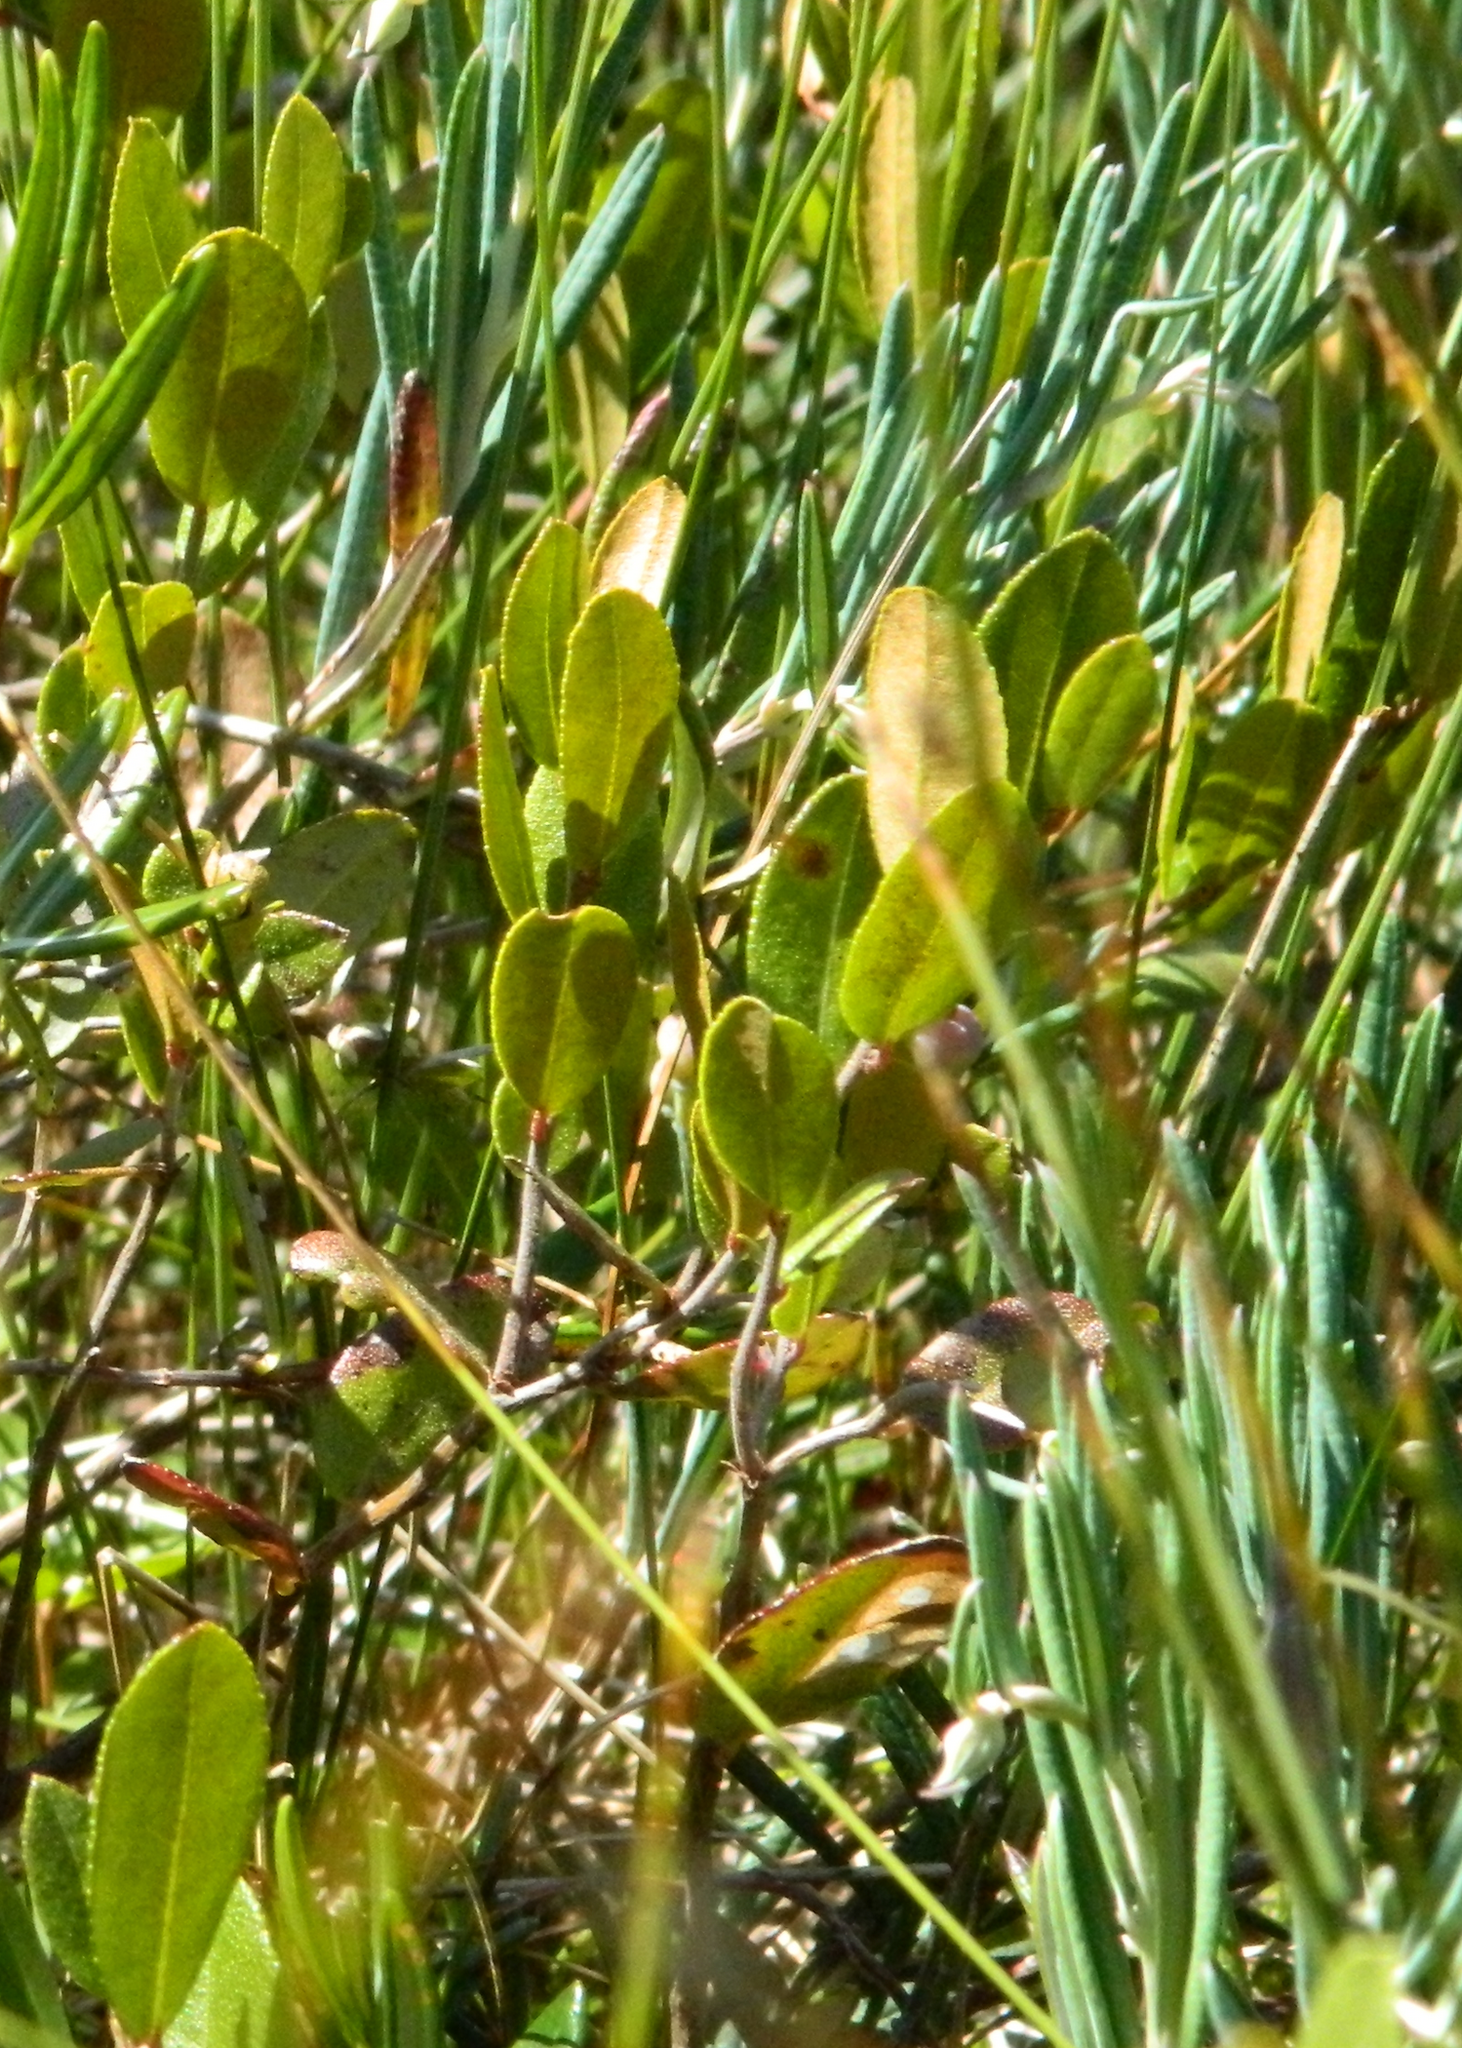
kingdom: Plantae
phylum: Tracheophyta
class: Magnoliopsida
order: Ericales
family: Ericaceae
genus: Chamaedaphne
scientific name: Chamaedaphne calyculata
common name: Leatherleaf
